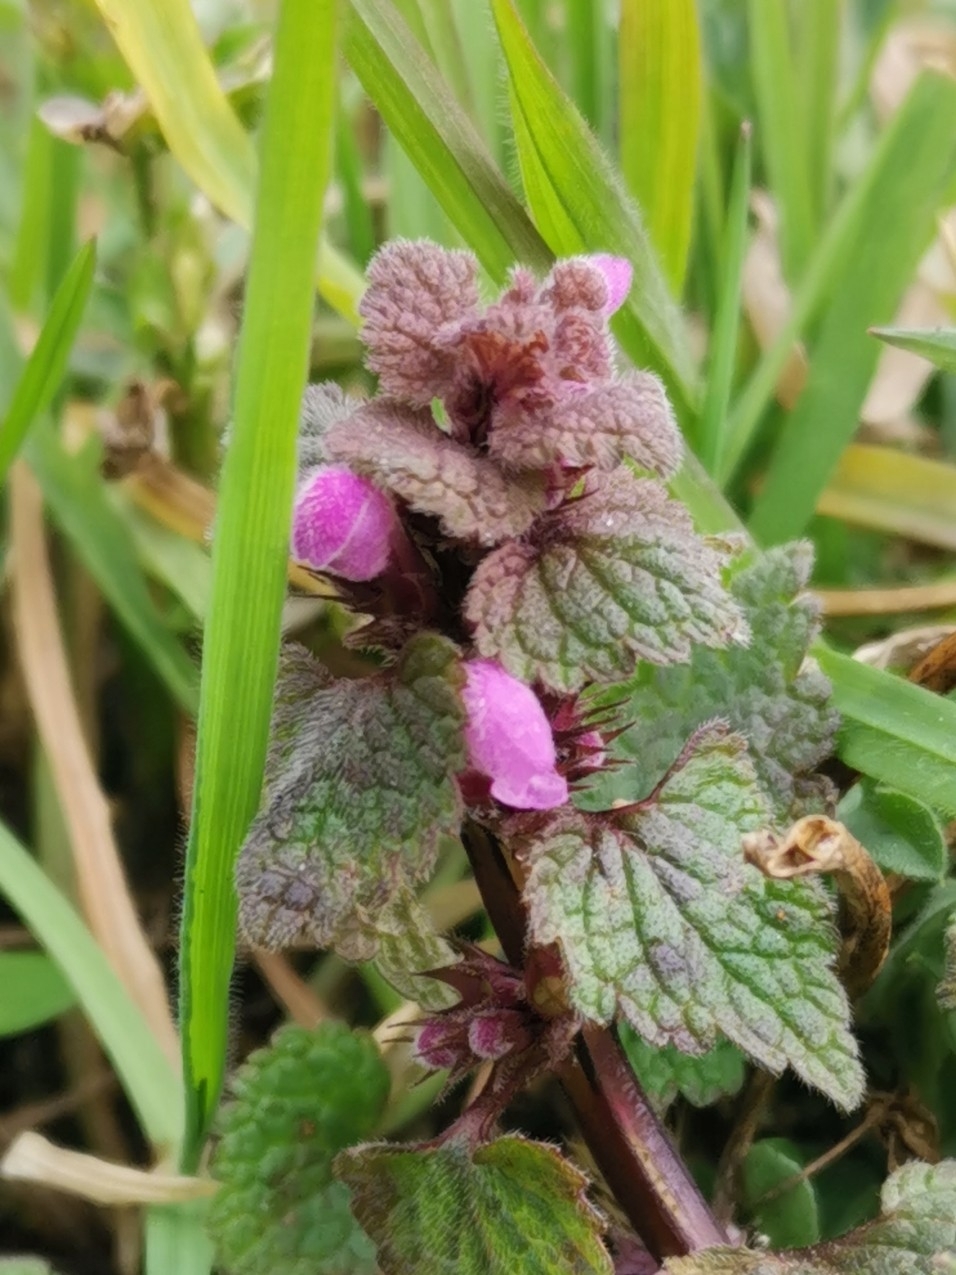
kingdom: Plantae
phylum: Tracheophyta
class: Magnoliopsida
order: Lamiales
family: Lamiaceae
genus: Lamium
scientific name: Lamium purpureum
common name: Red dead-nettle
